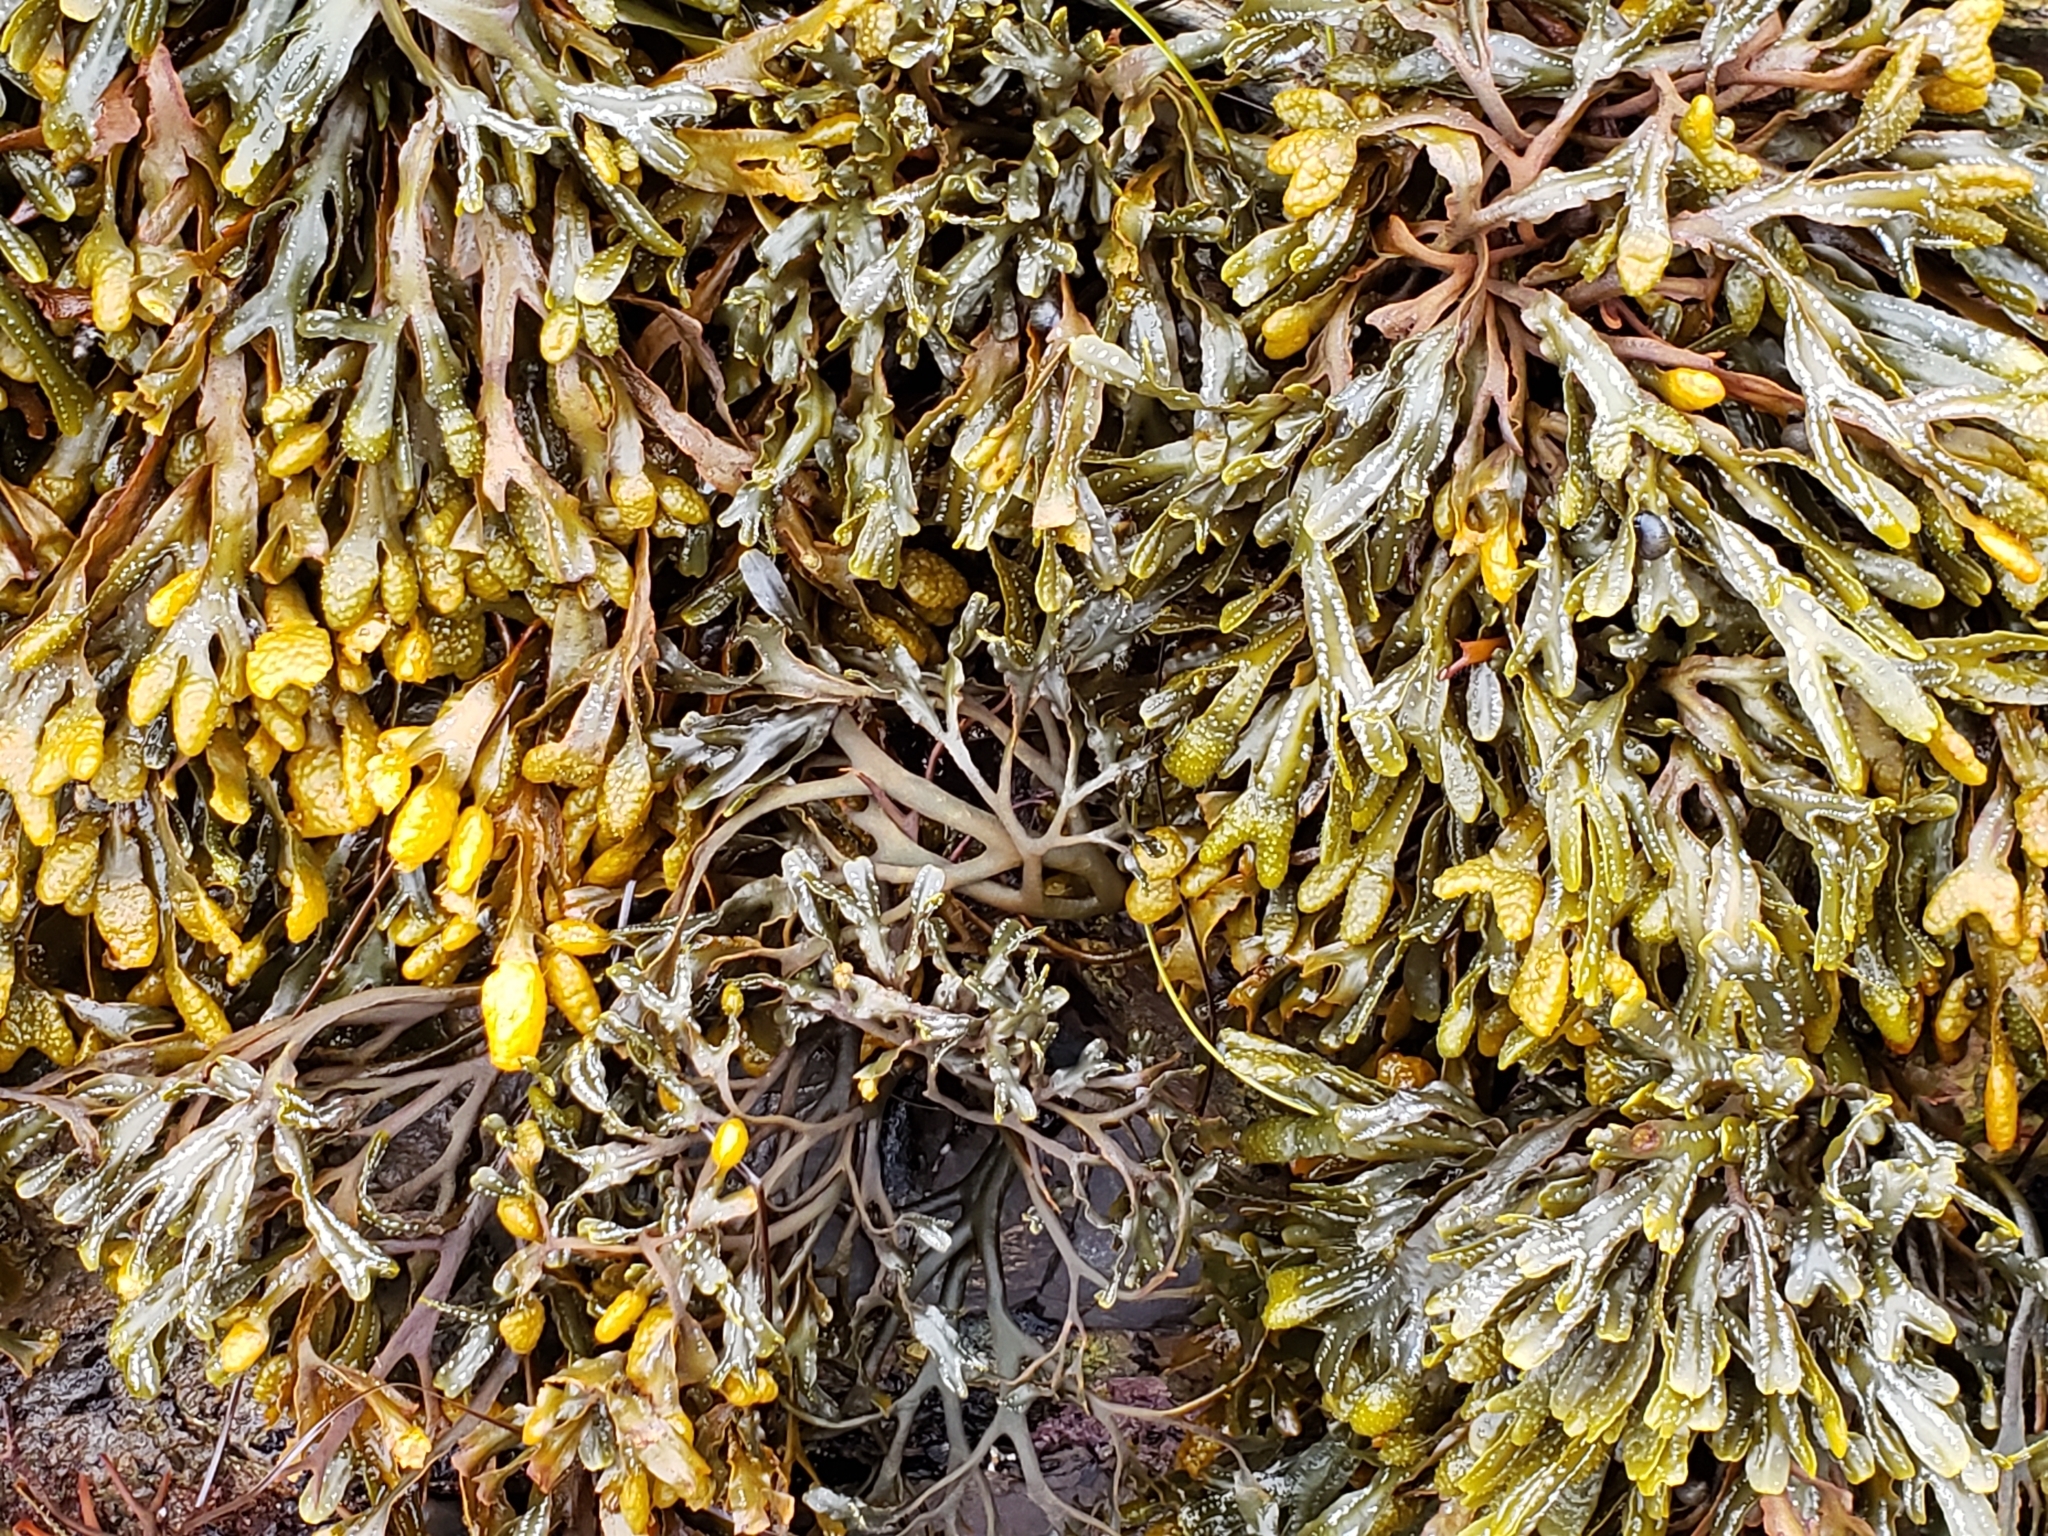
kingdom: Chromista
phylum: Ochrophyta
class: Phaeophyceae
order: Fucales
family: Fucaceae
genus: Pelvetiopsis
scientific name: Pelvetiopsis
